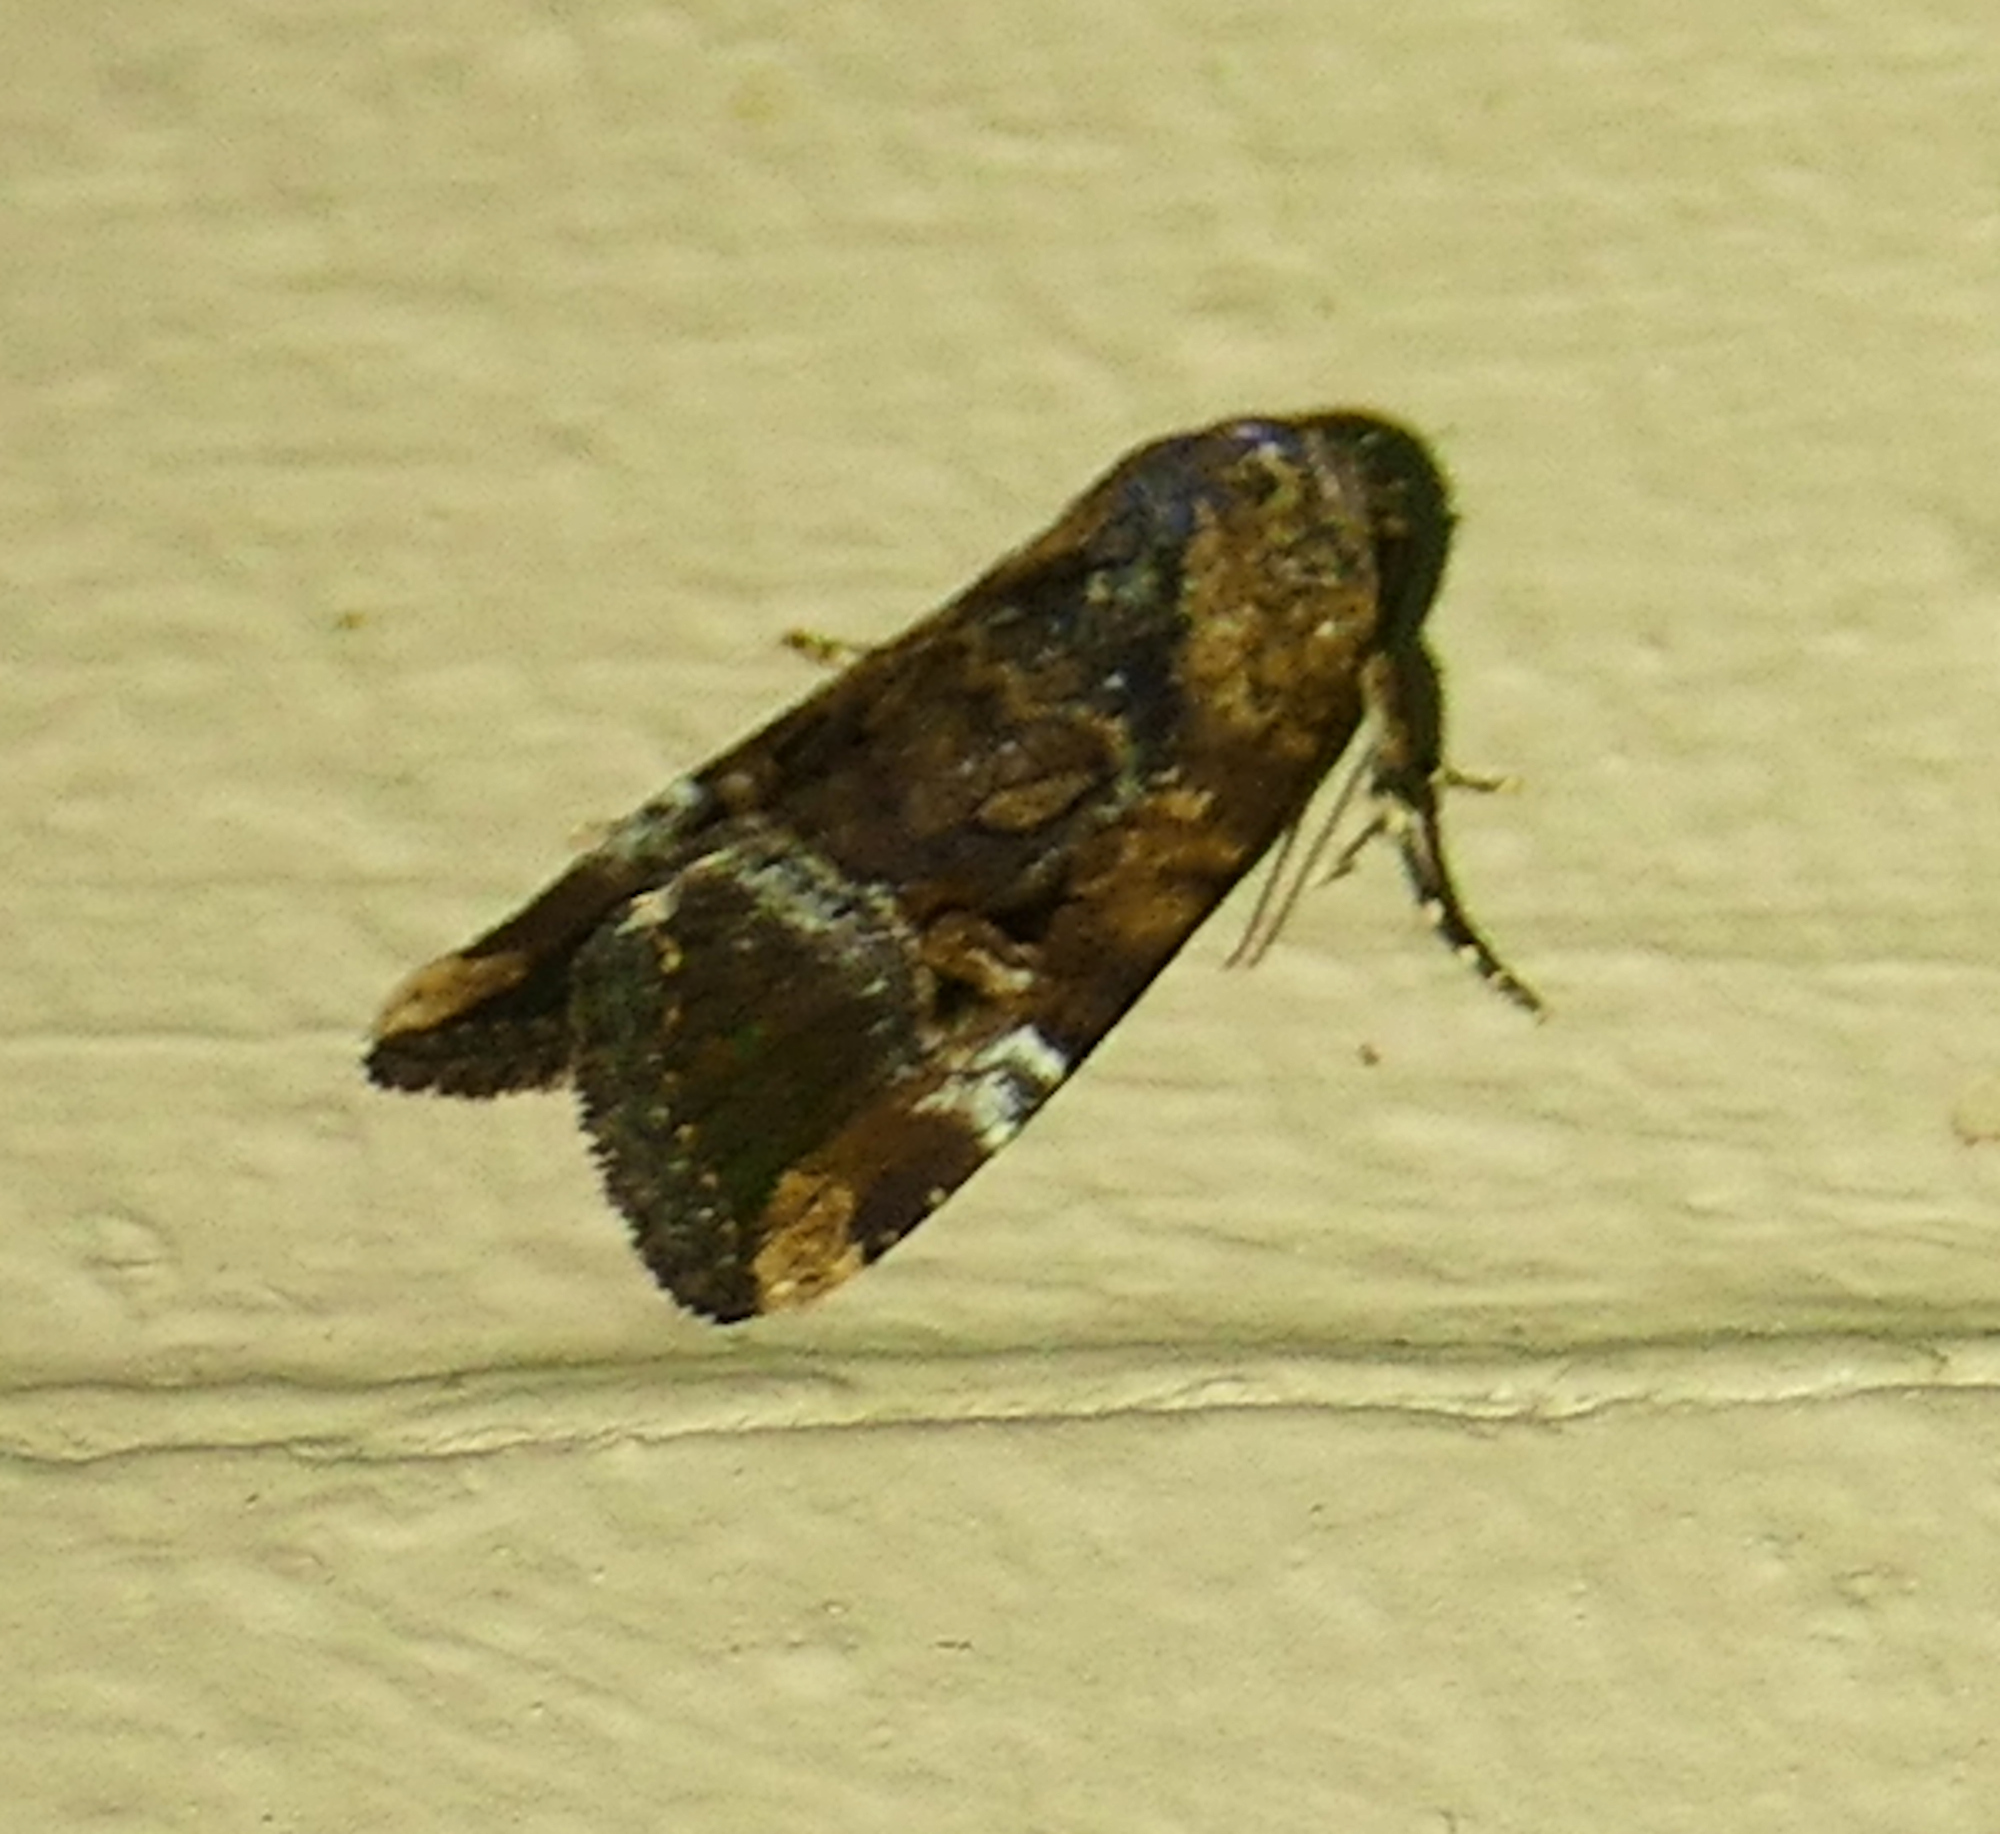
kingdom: Animalia
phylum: Arthropoda
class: Insecta
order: Lepidoptera
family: Noctuidae
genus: Elaphria
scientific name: Elaphria chalcedonia
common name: Chalcedony midget
